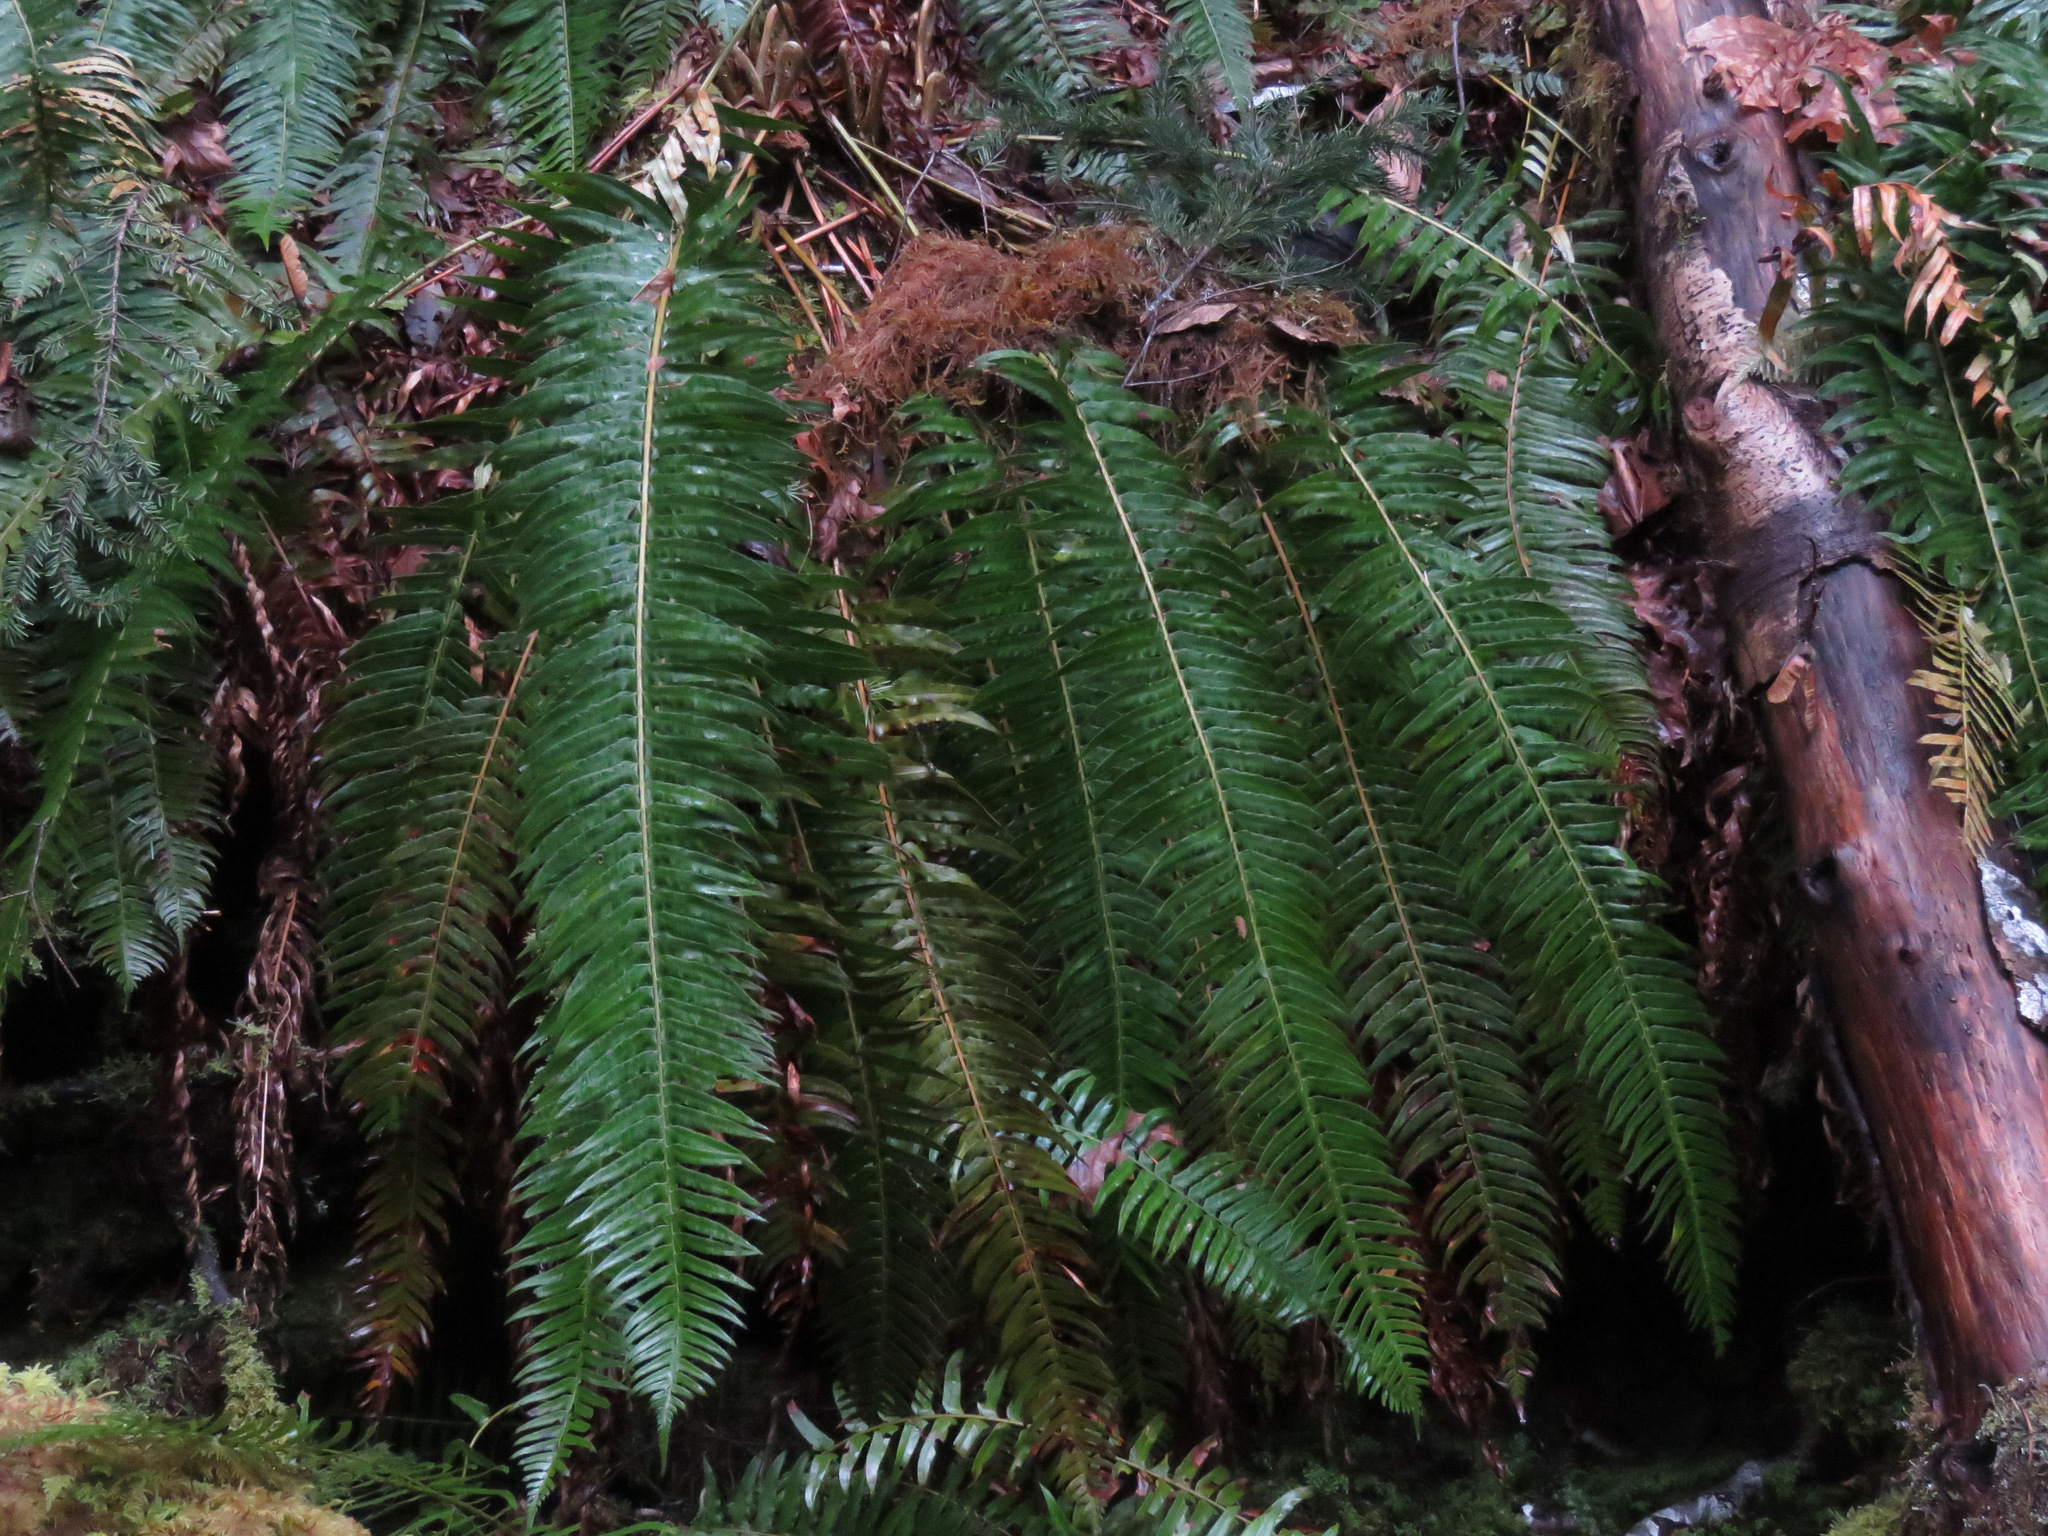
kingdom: Plantae
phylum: Tracheophyta
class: Polypodiopsida
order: Polypodiales
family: Dryopteridaceae
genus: Polystichum
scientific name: Polystichum munitum
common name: Western sword-fern
